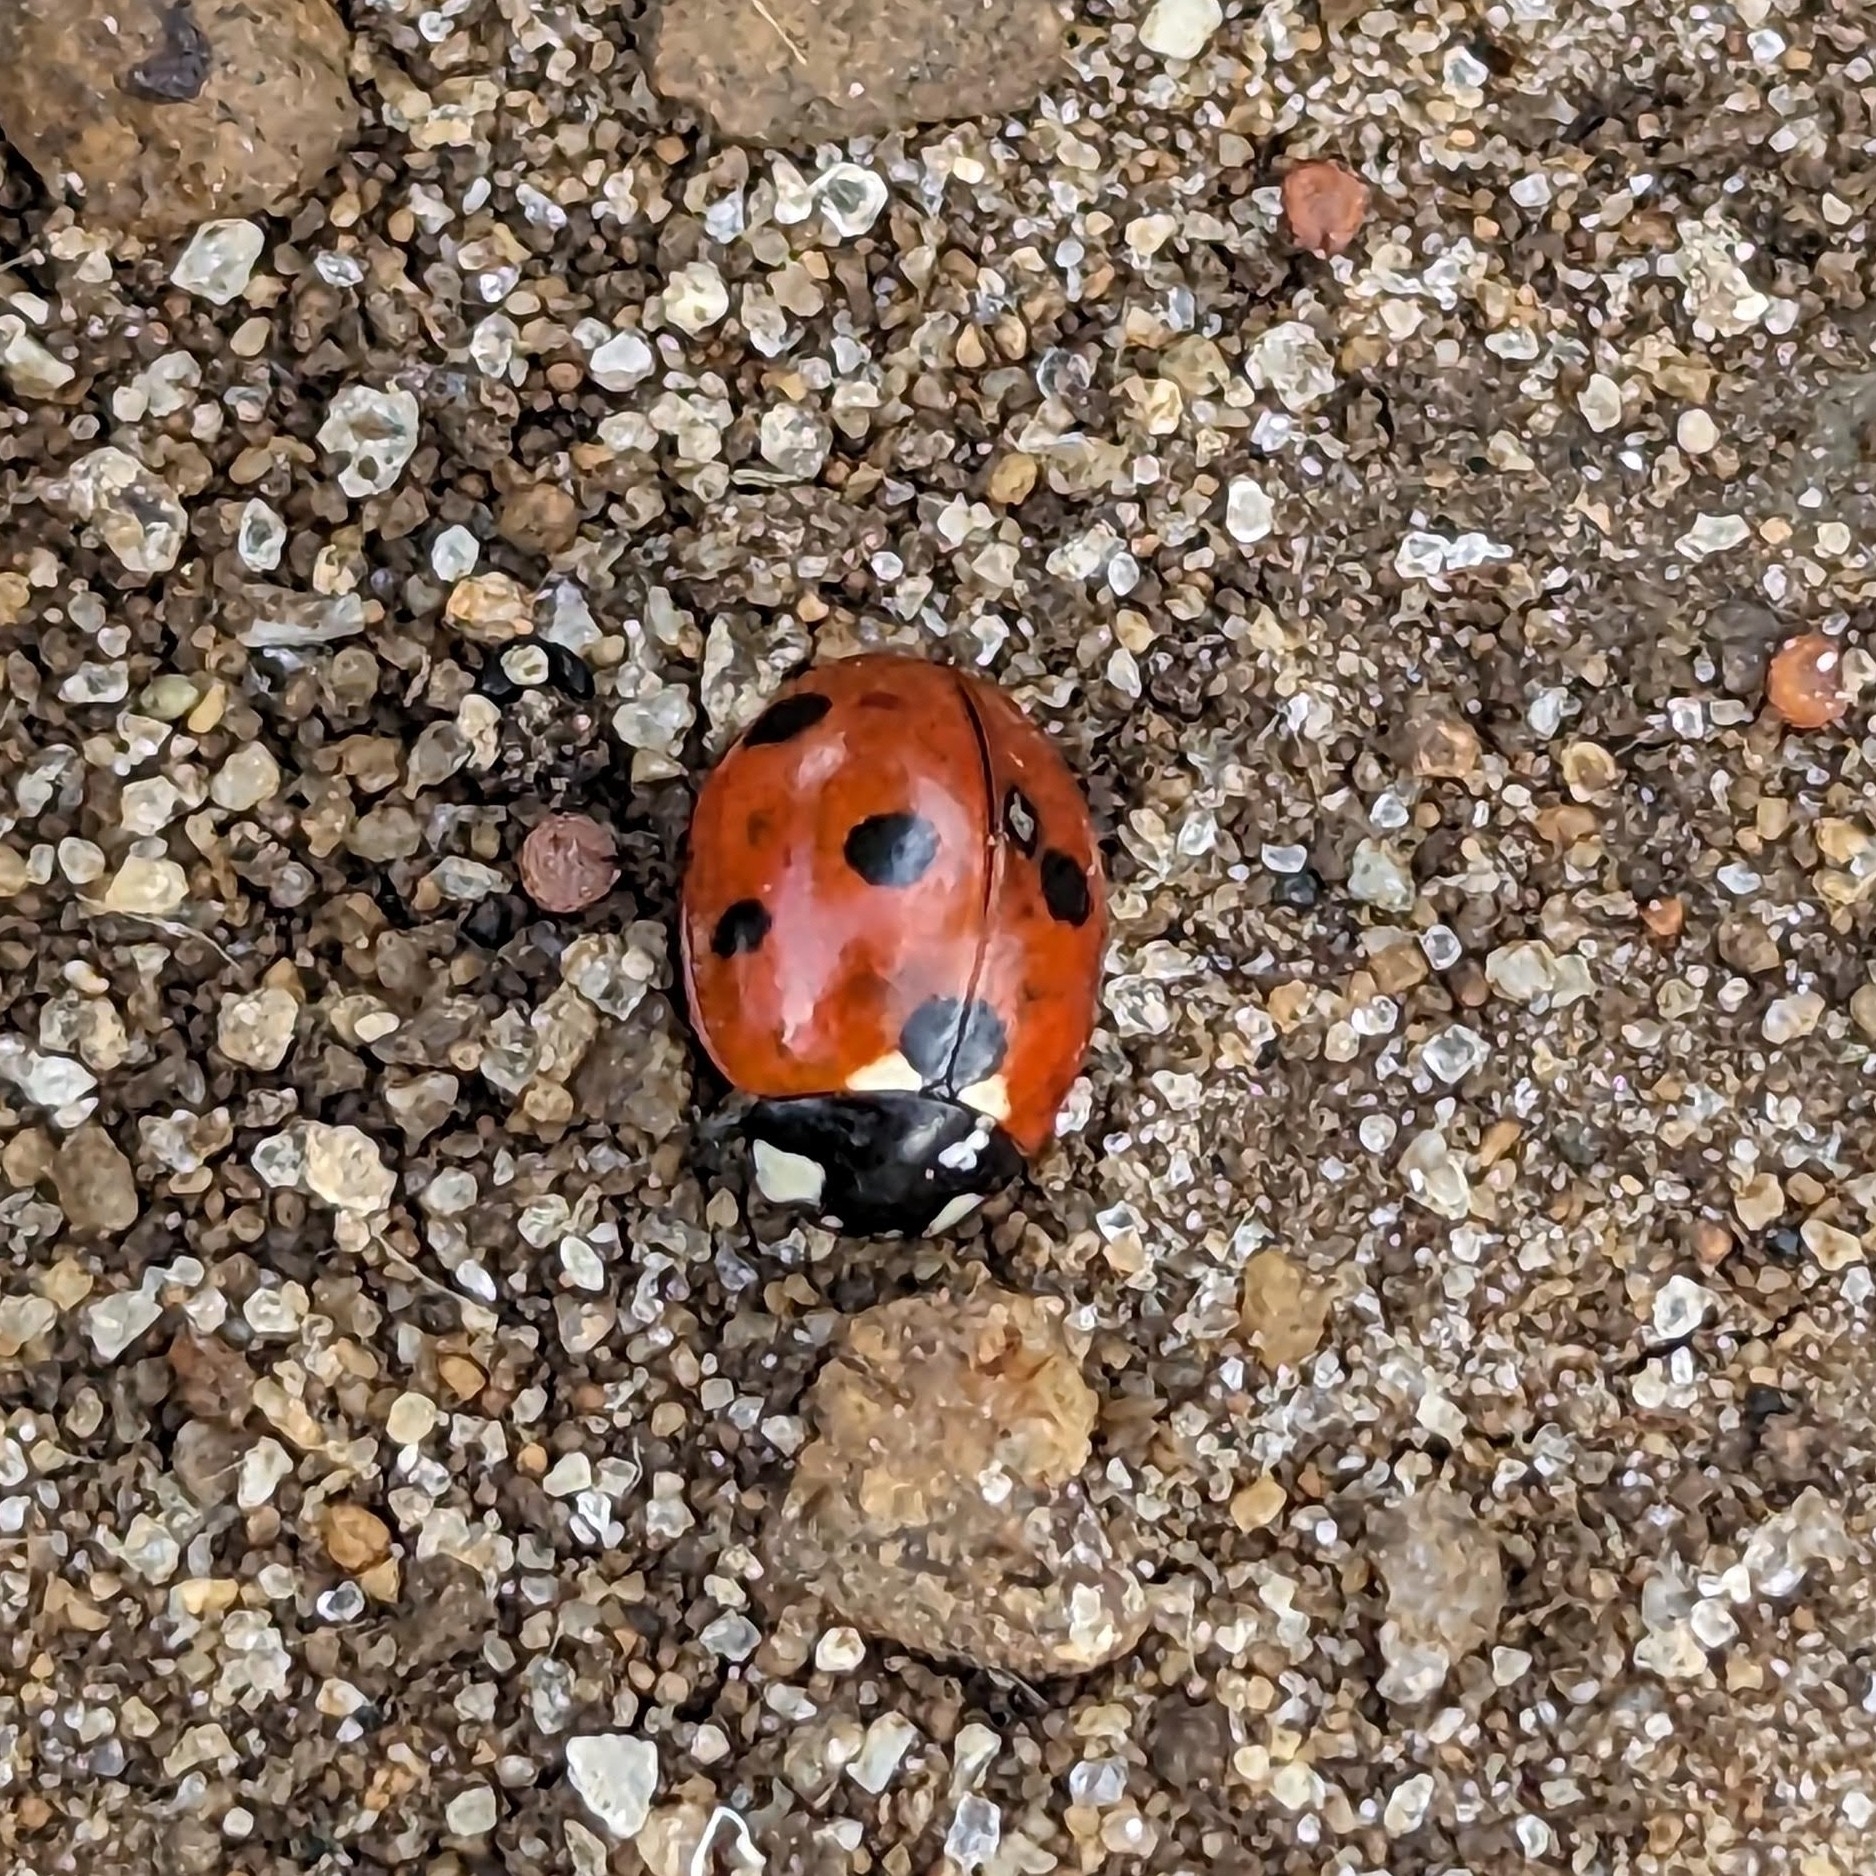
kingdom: Animalia
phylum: Arthropoda
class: Insecta
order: Coleoptera
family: Coccinellidae
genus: Coccinella
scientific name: Coccinella septempunctata
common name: Sevenspotted lady beetle
